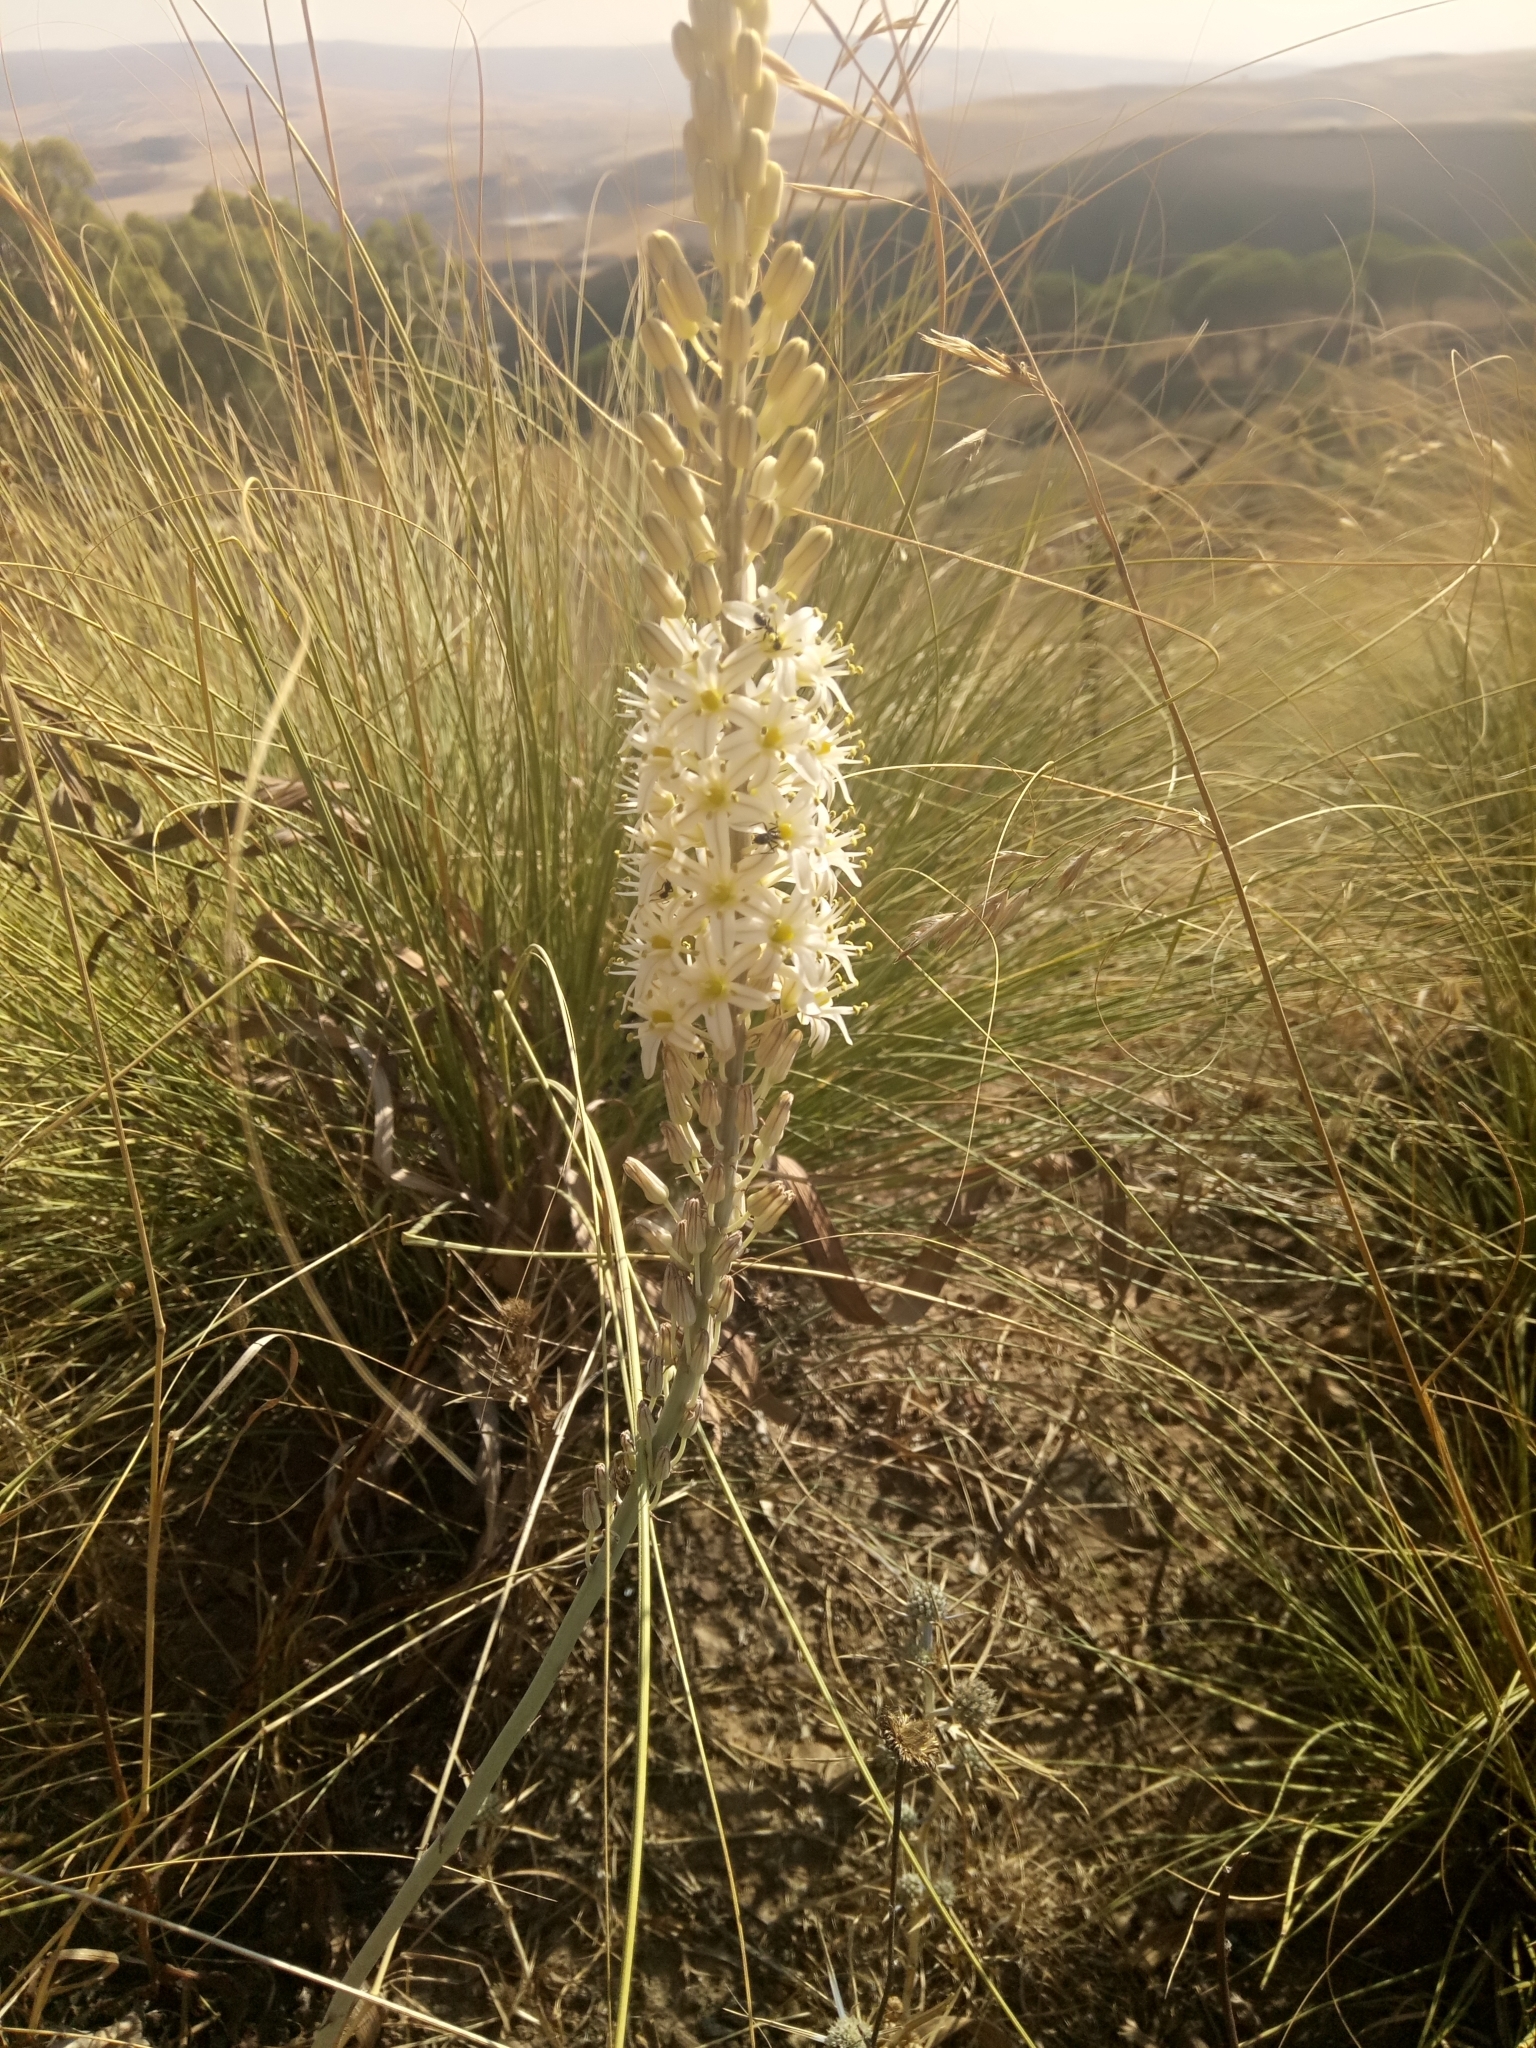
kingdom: Plantae
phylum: Tracheophyta
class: Liliopsida
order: Asparagales
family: Asparagaceae
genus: Drimia
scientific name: Drimia anthericoides
